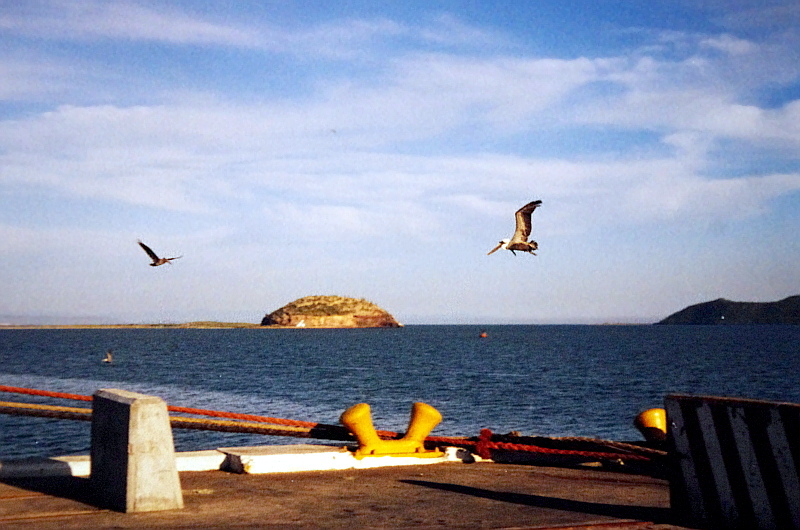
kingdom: Animalia
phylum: Chordata
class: Aves
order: Pelecaniformes
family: Pelecanidae
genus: Pelecanus
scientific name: Pelecanus occidentalis
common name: Brown pelican
